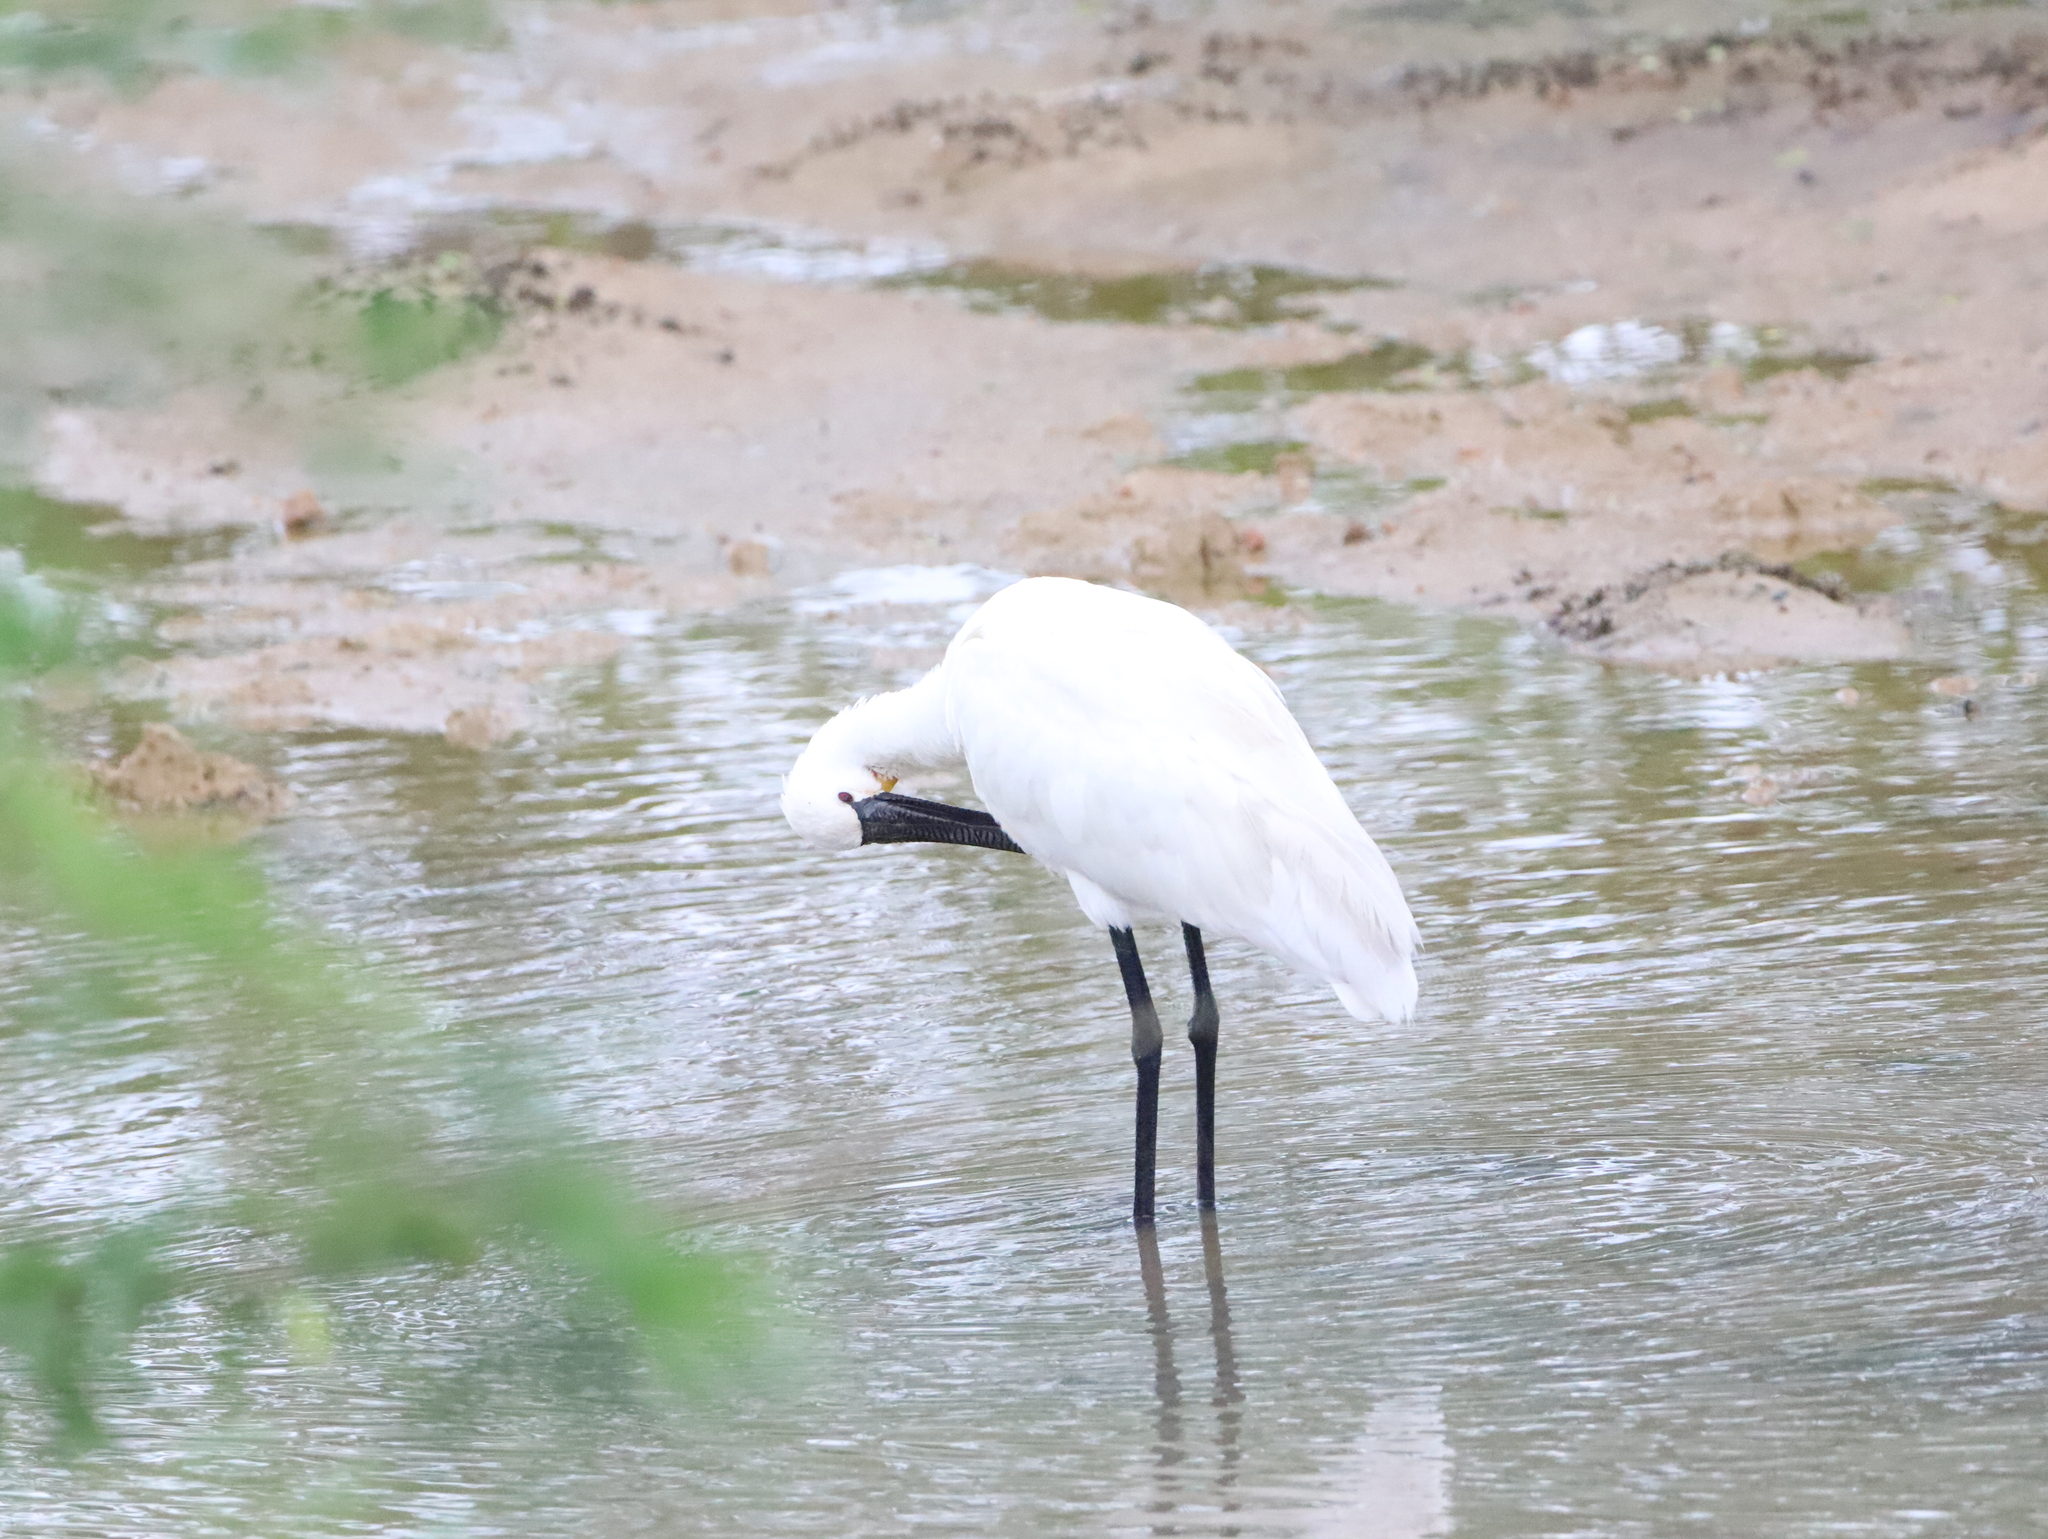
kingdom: Animalia
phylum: Chordata
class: Aves
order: Pelecaniformes
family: Threskiornithidae
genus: Platalea
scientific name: Platalea leucorodia
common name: Eurasian spoonbill
